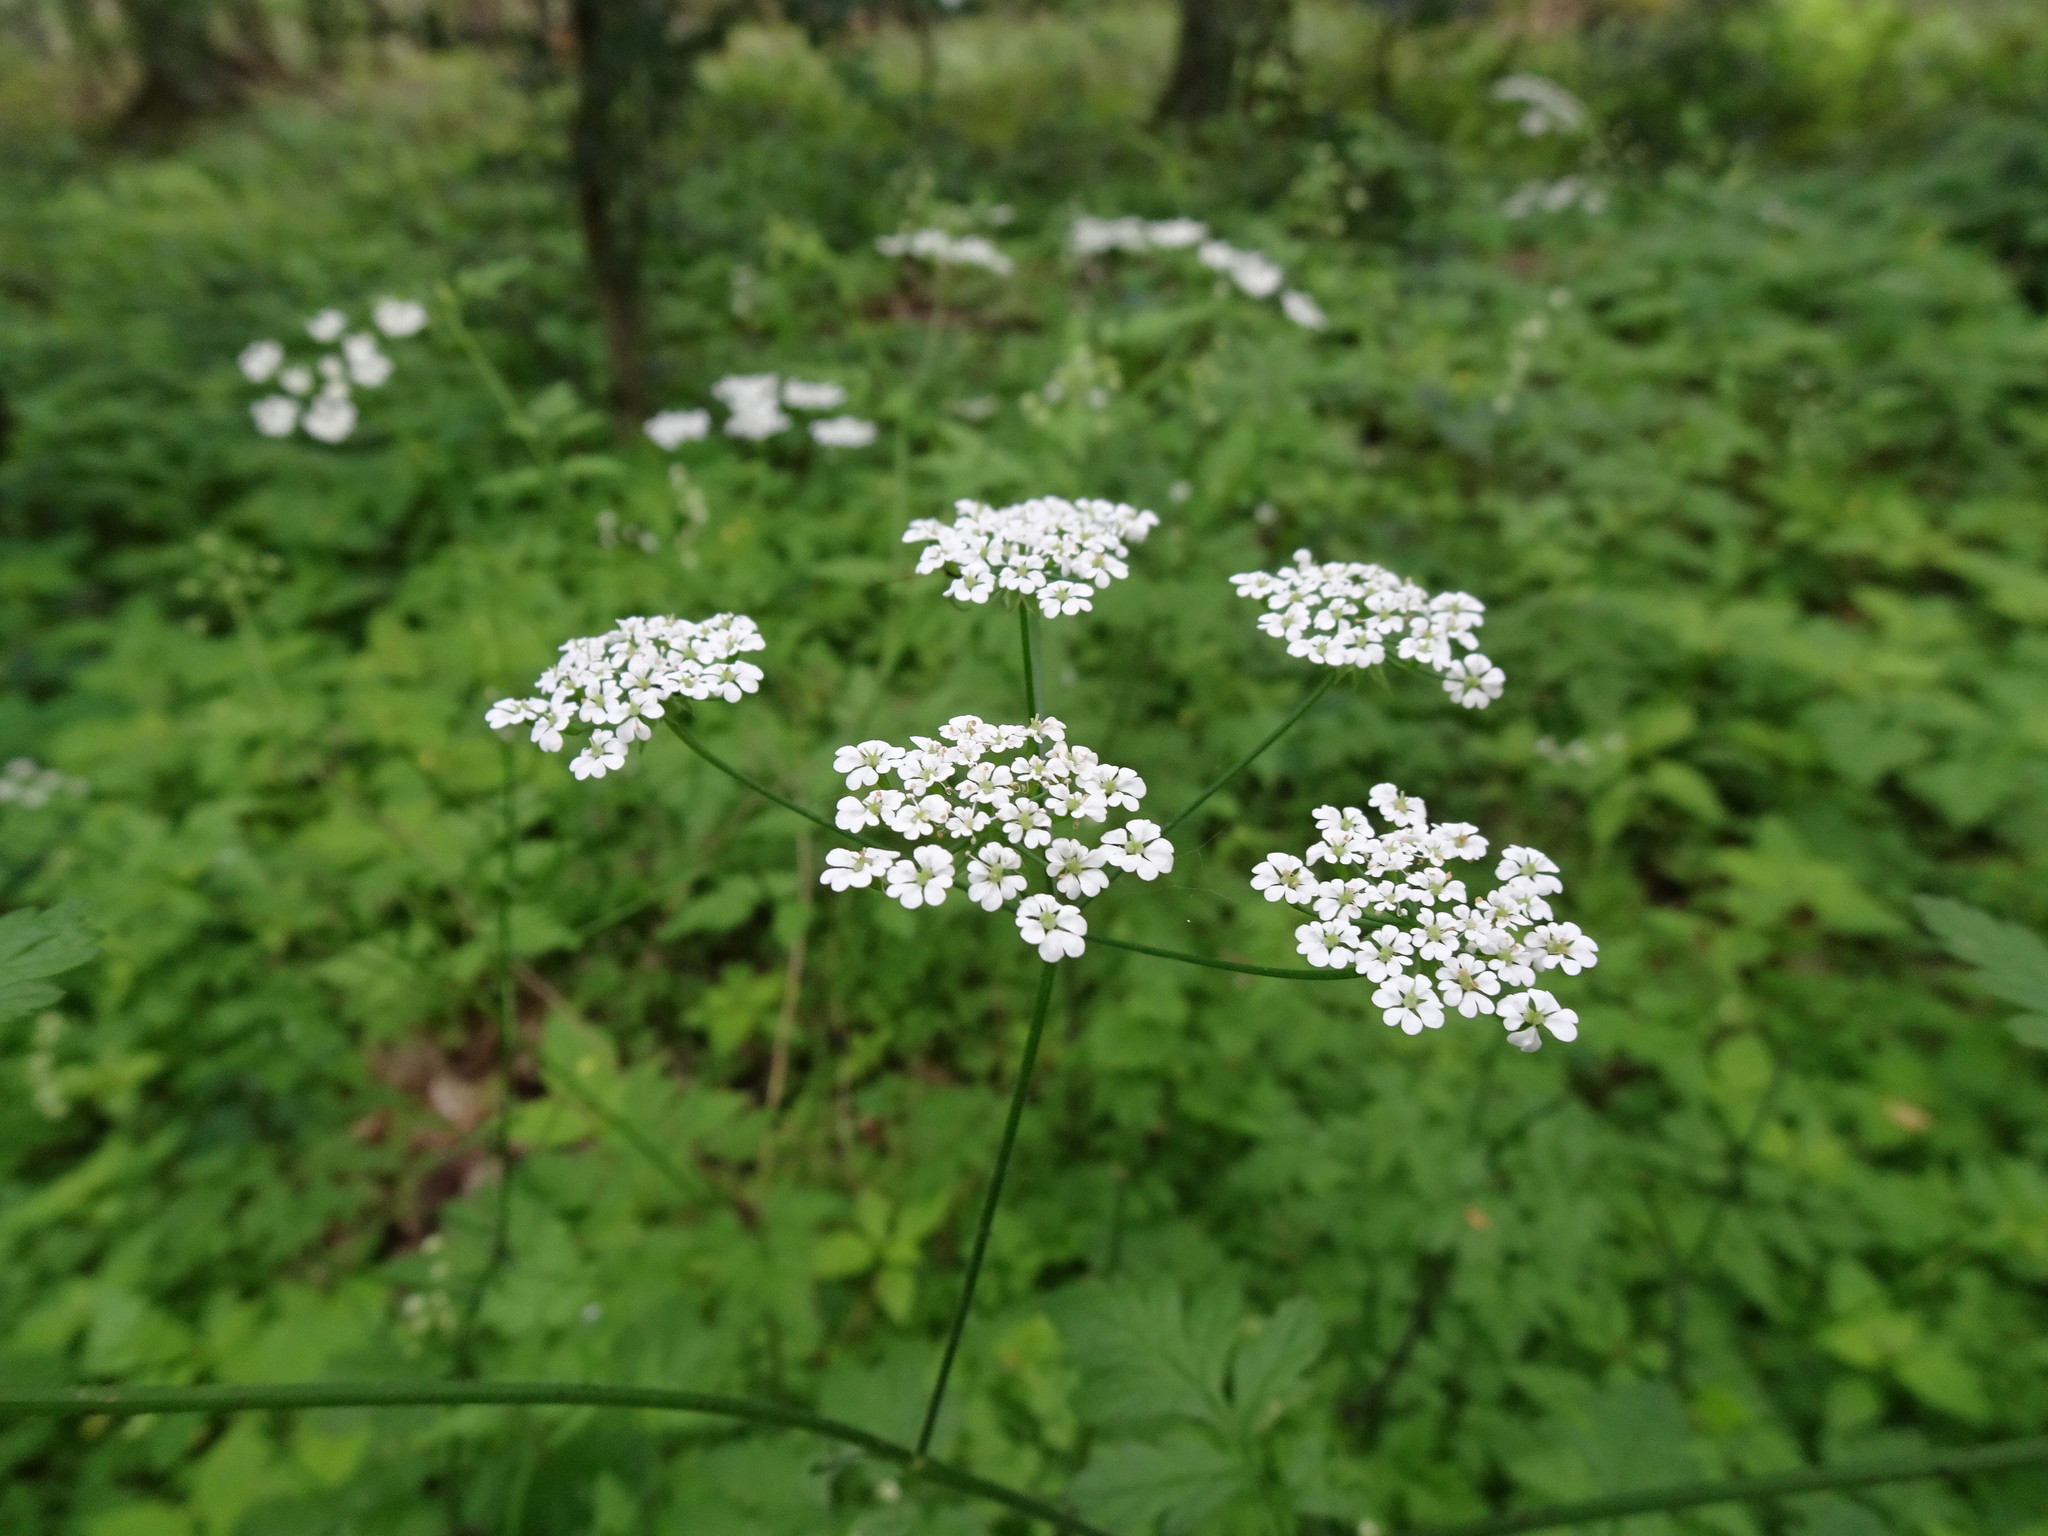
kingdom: Plantae
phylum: Tracheophyta
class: Magnoliopsida
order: Apiales
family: Apiaceae
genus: Chaerophyllum
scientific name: Chaerophyllum temulum
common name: Rough chervil
